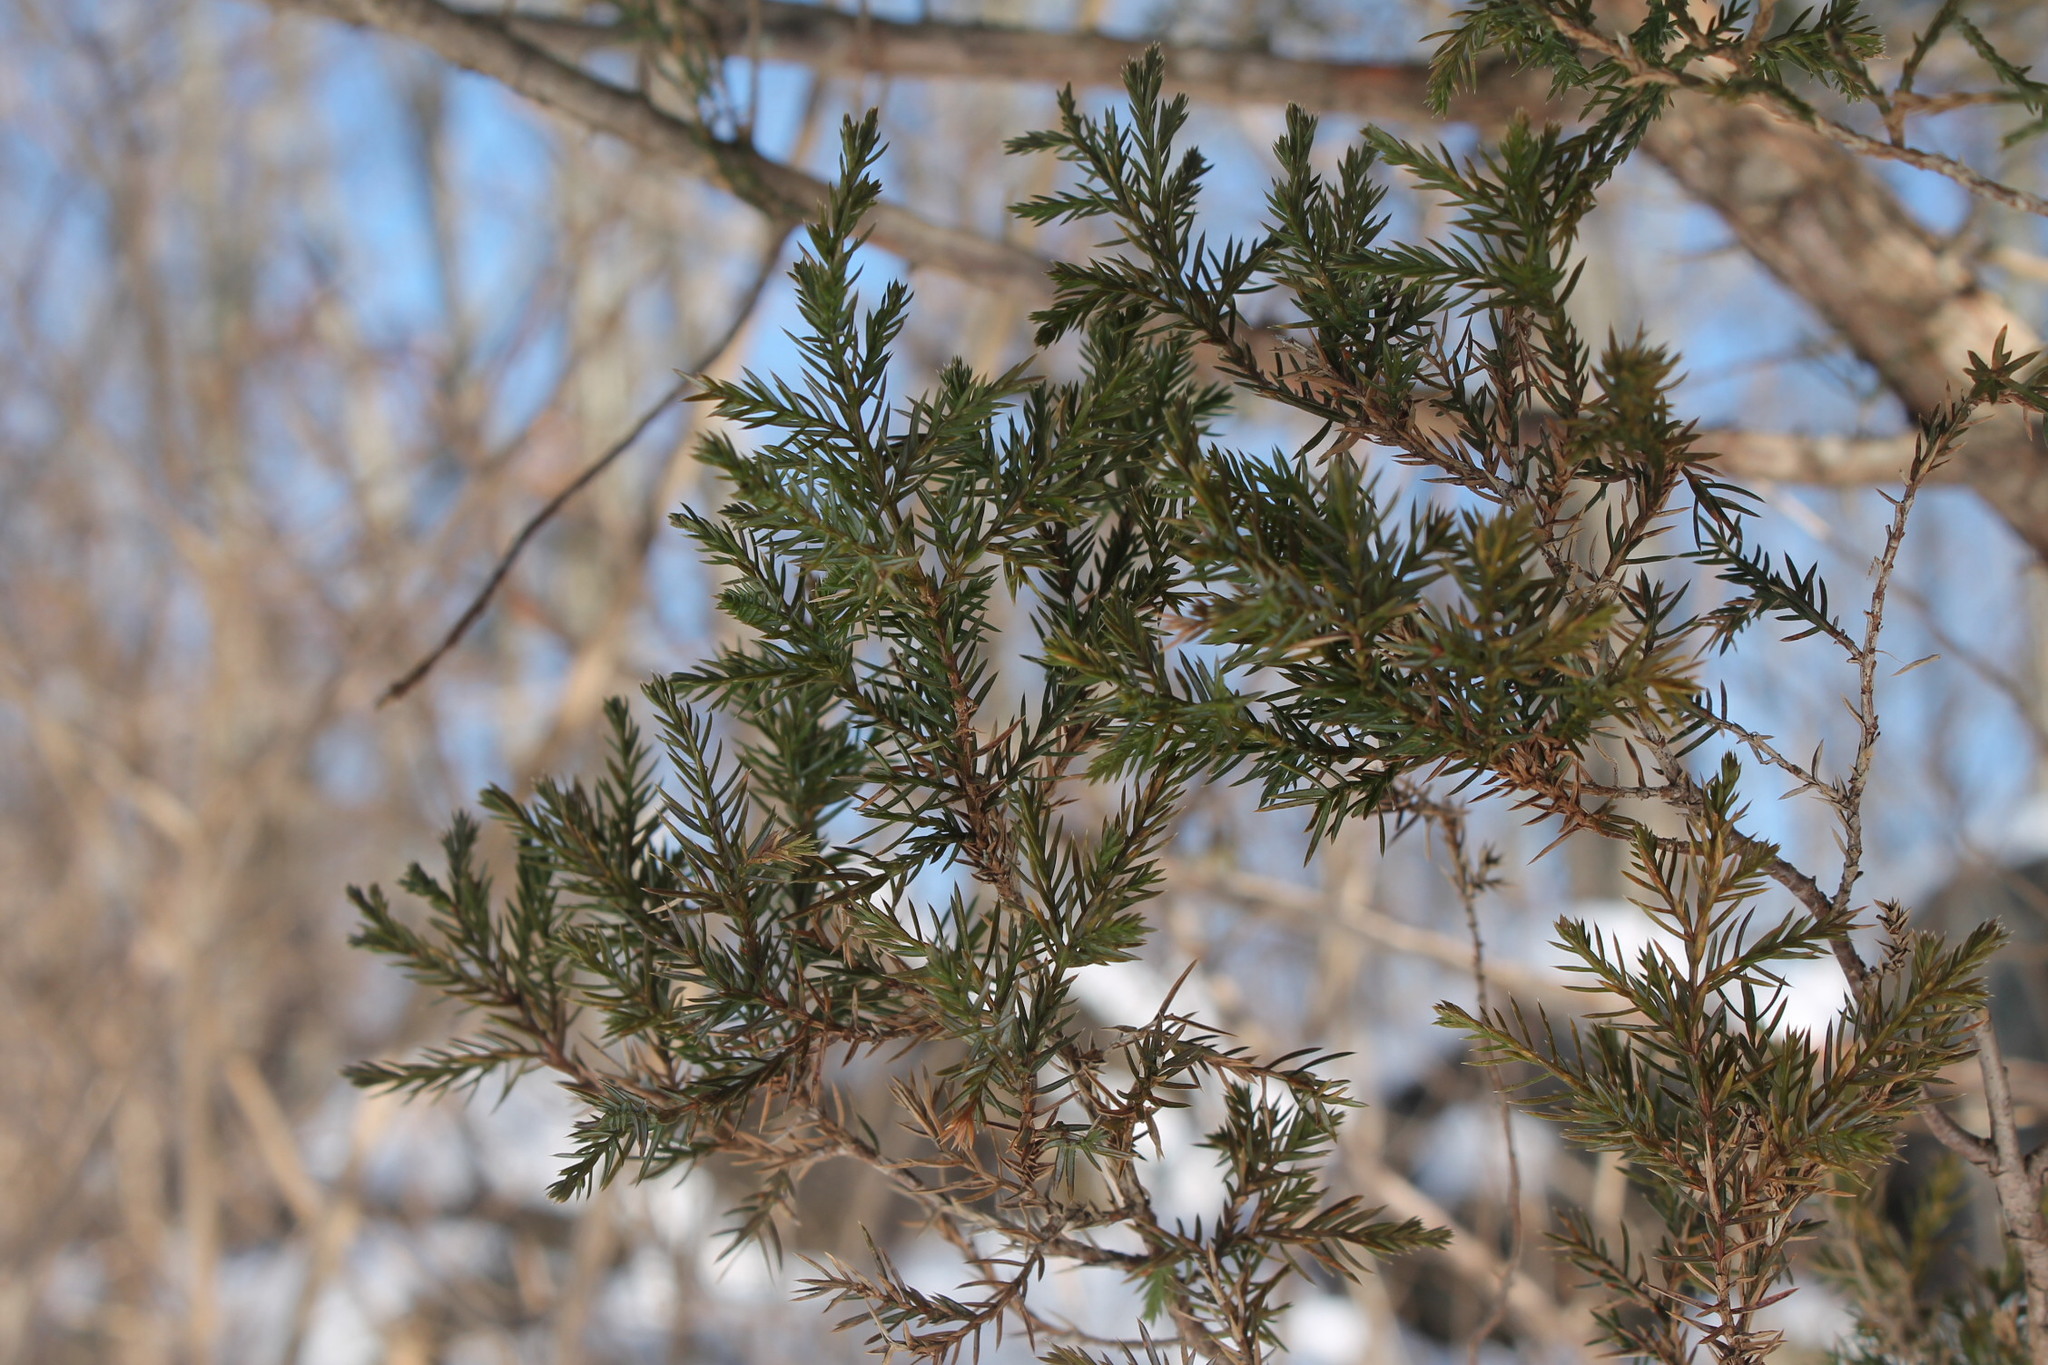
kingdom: Plantae
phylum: Tracheophyta
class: Pinopsida
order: Pinales
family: Cupressaceae
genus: Juniperus
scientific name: Juniperus virginiana
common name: Red juniper
